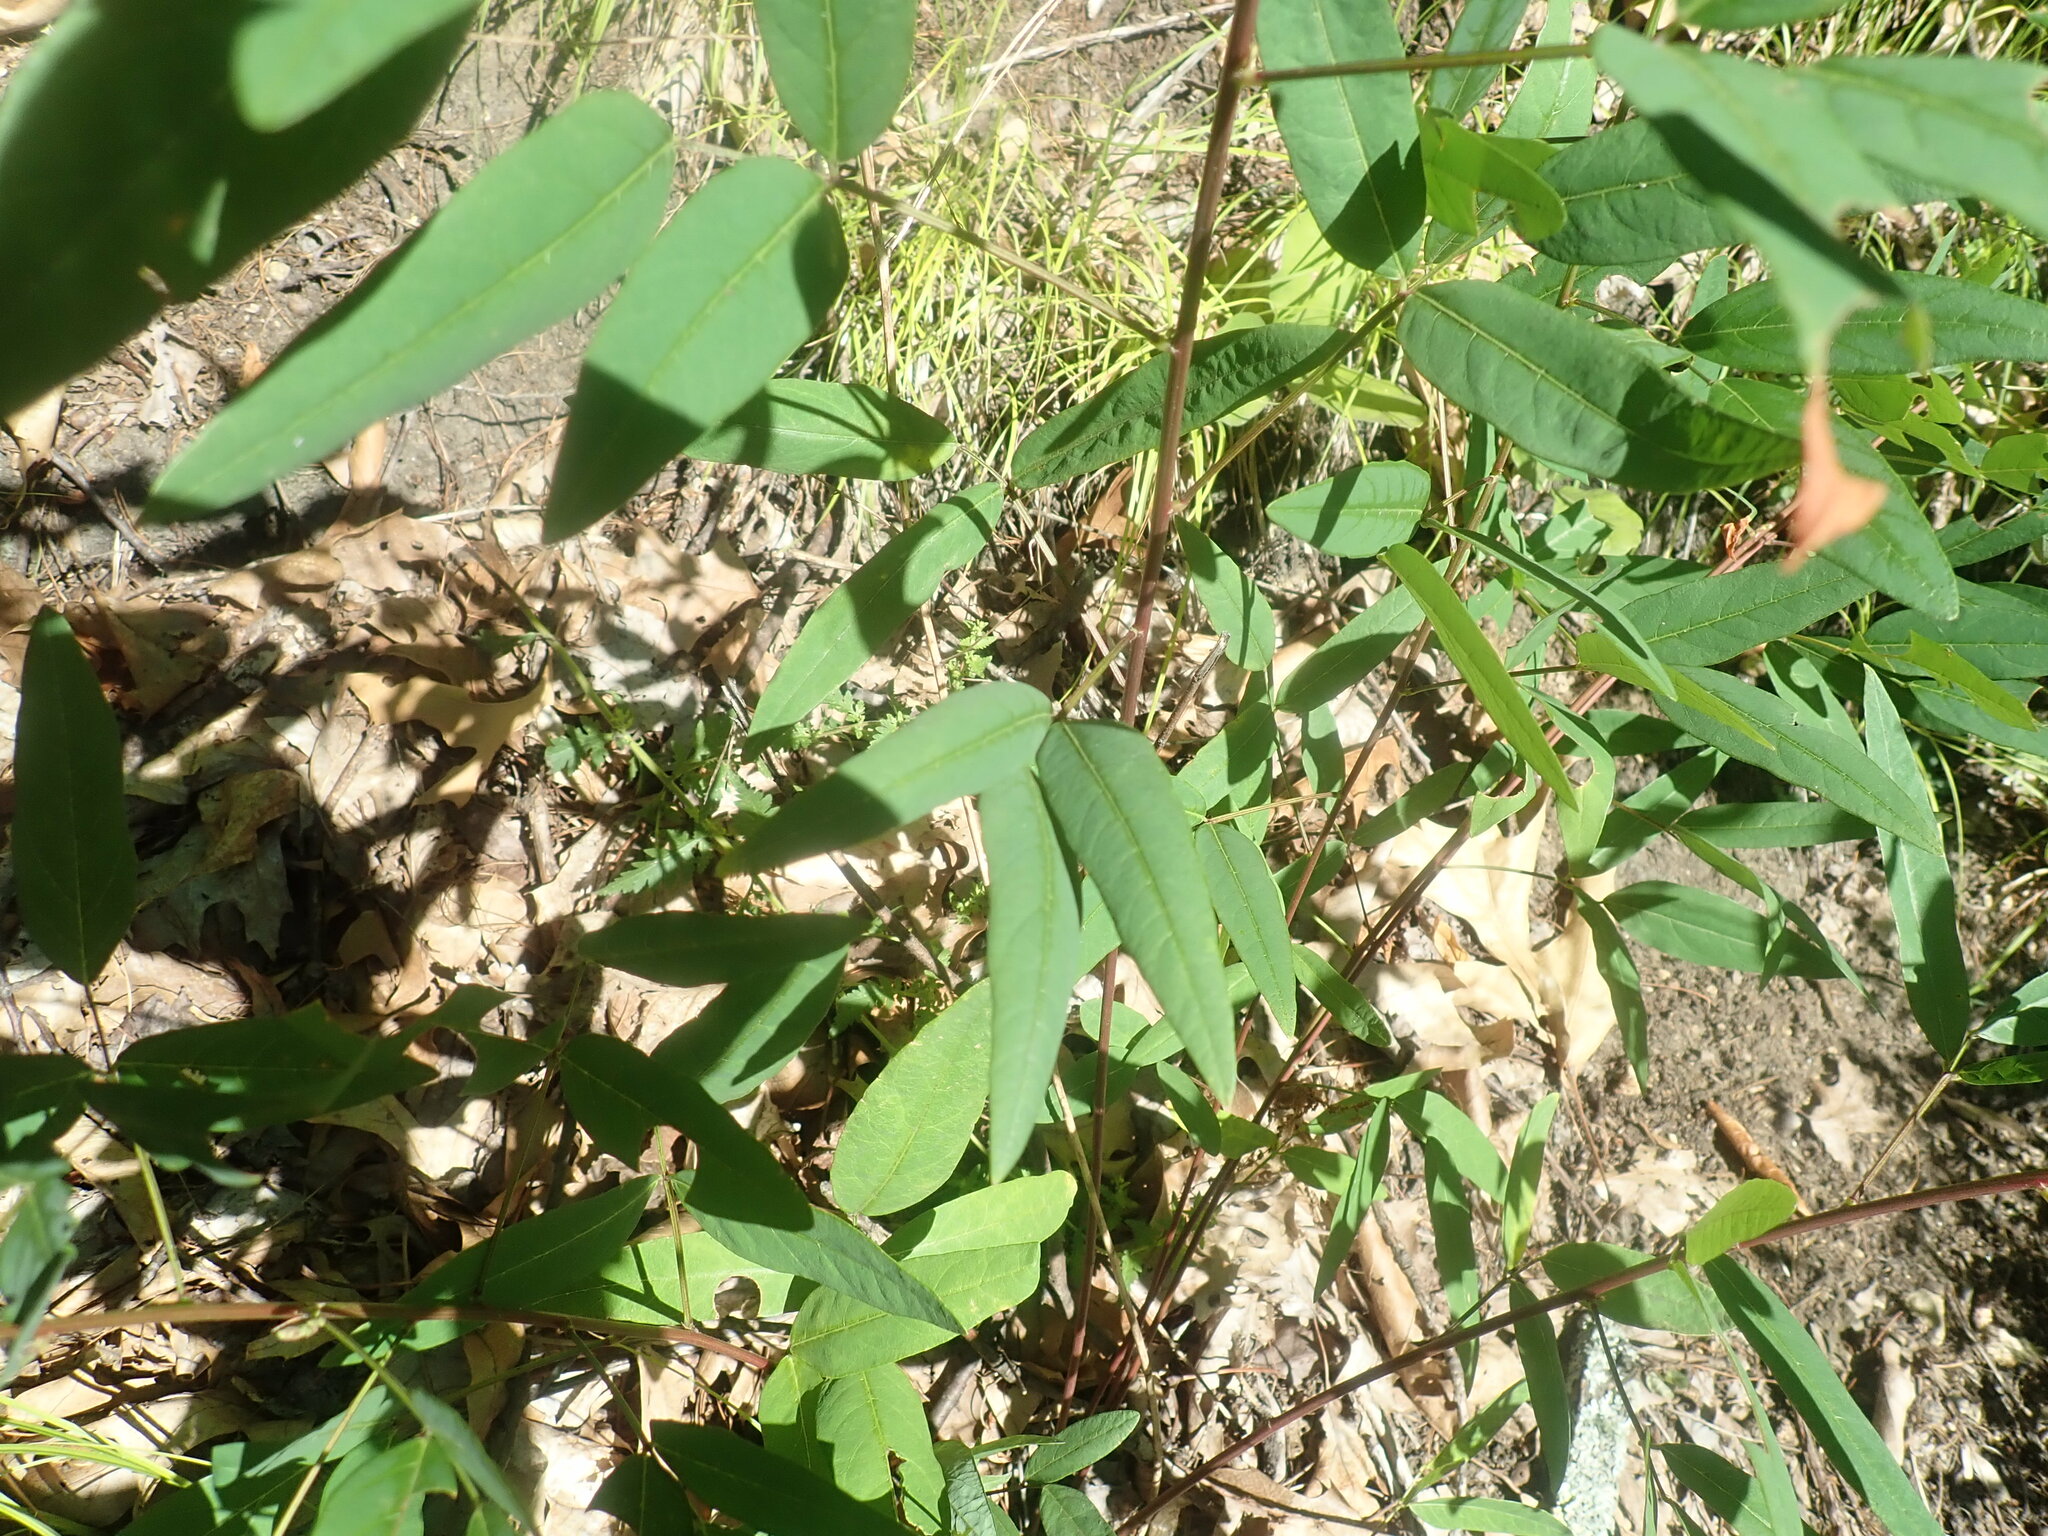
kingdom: Plantae
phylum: Tracheophyta
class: Magnoliopsida
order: Fabales
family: Fabaceae
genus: Desmodium
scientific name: Desmodium paniculatum
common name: Panicled tick-clover
